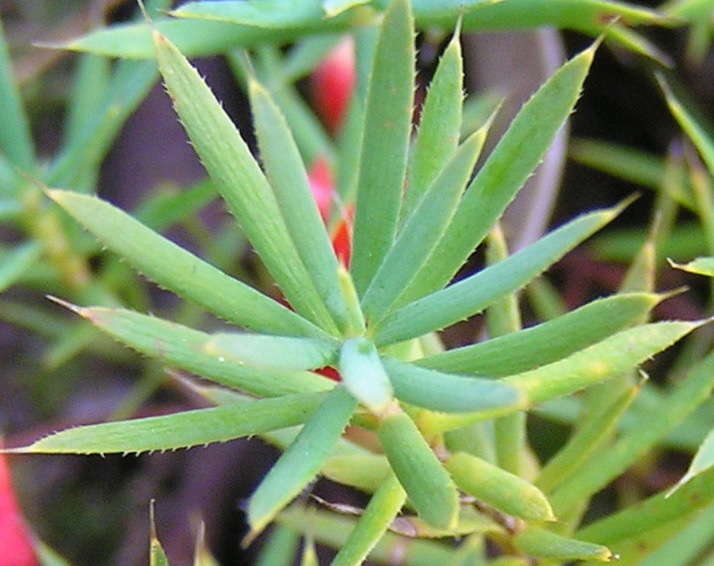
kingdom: Plantae
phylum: Tracheophyta
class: Magnoliopsida
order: Ericales
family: Ericaceae
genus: Styphelia
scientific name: Styphelia humifusa
